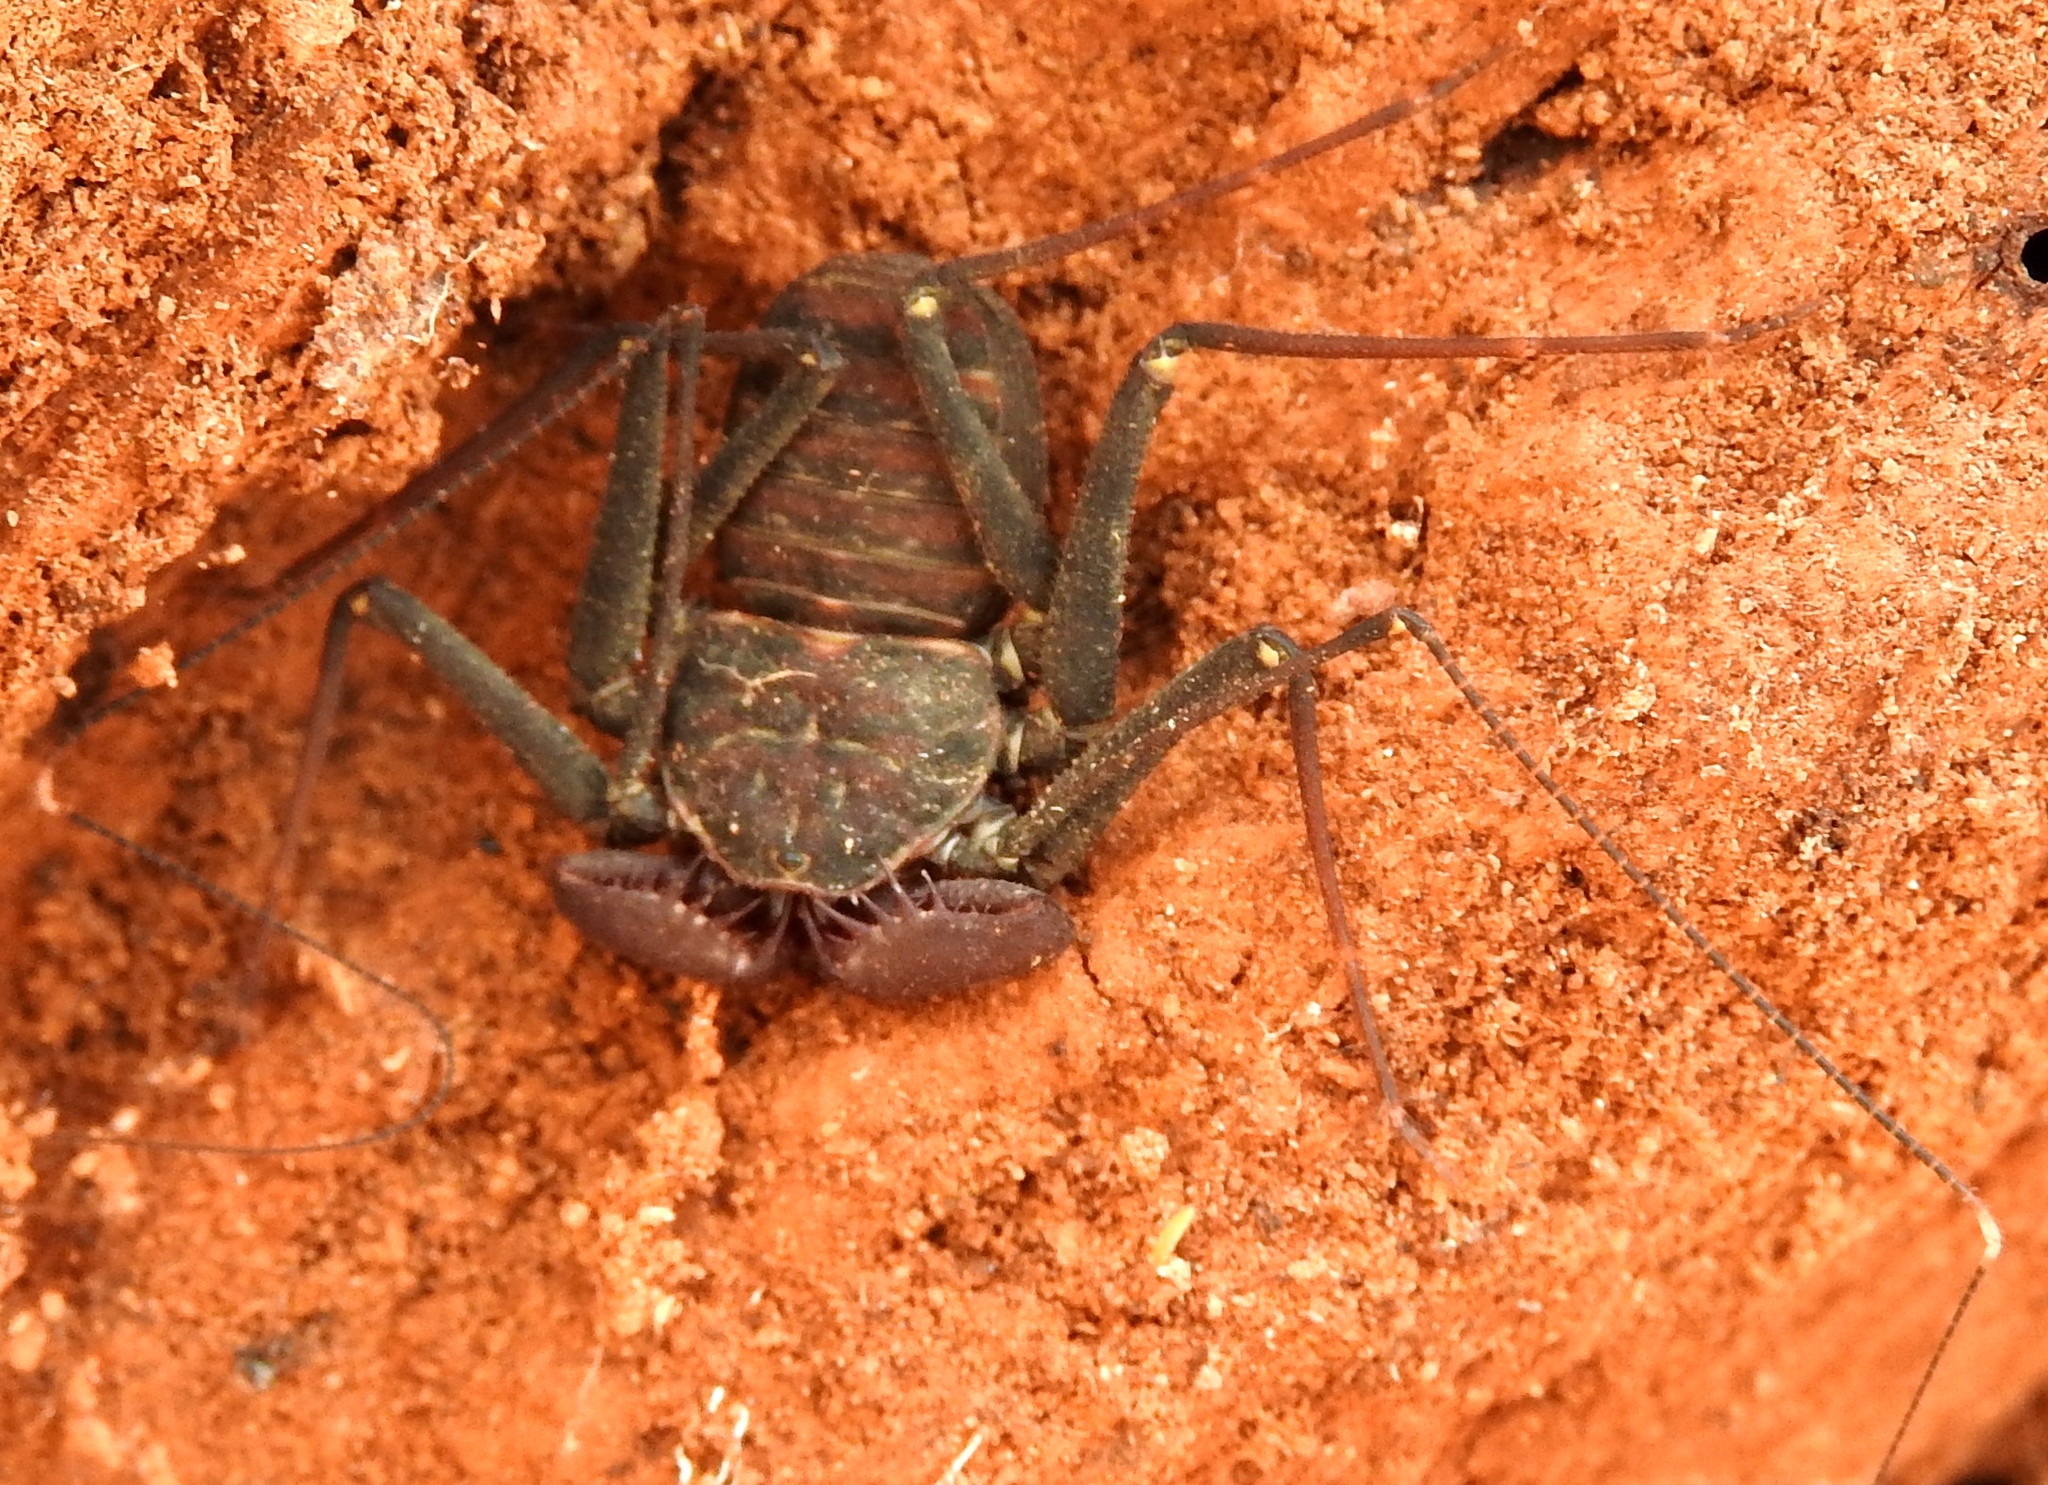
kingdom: Animalia
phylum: Arthropoda
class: Arachnida
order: Amblypygi
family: Phrynidae
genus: Phrynus
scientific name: Phrynus operculatus
